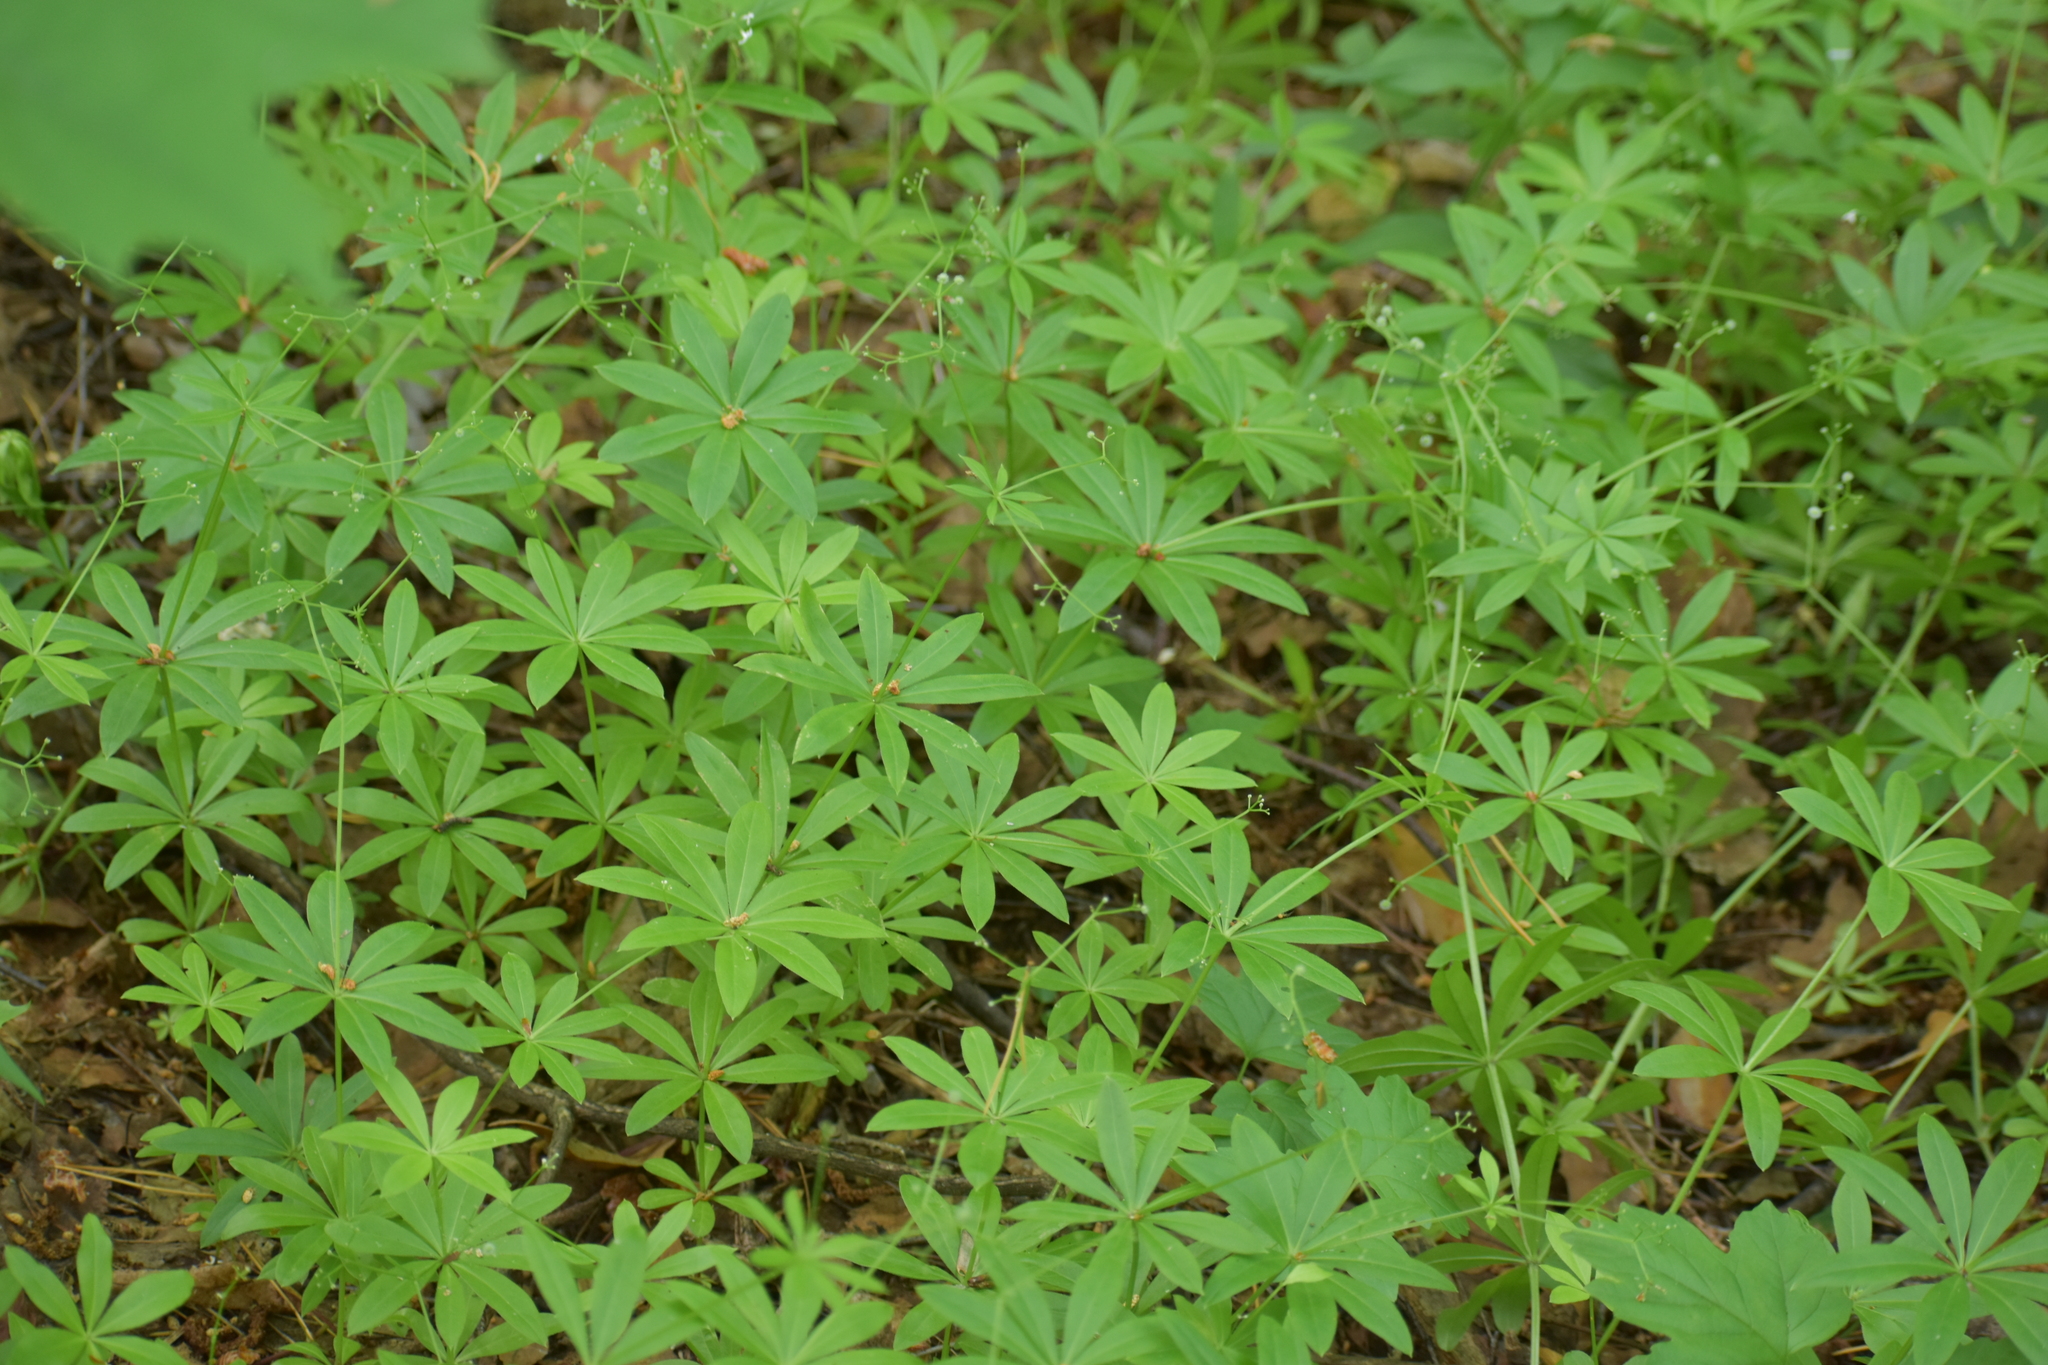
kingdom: Plantae
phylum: Tracheophyta
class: Magnoliopsida
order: Gentianales
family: Rubiaceae
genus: Galium
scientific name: Galium odoratum
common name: Sweet woodruff
